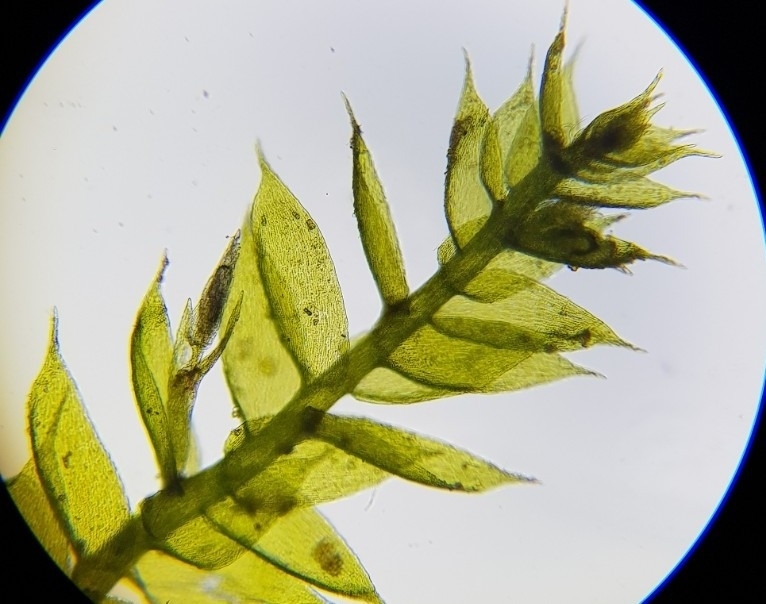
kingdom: Plantae
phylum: Bryophyta
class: Bryopsida
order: Hypnales
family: Plagiotheciaceae
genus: Pseudotaxiphyllum
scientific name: Pseudotaxiphyllum elegans
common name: Elegant silk moss
